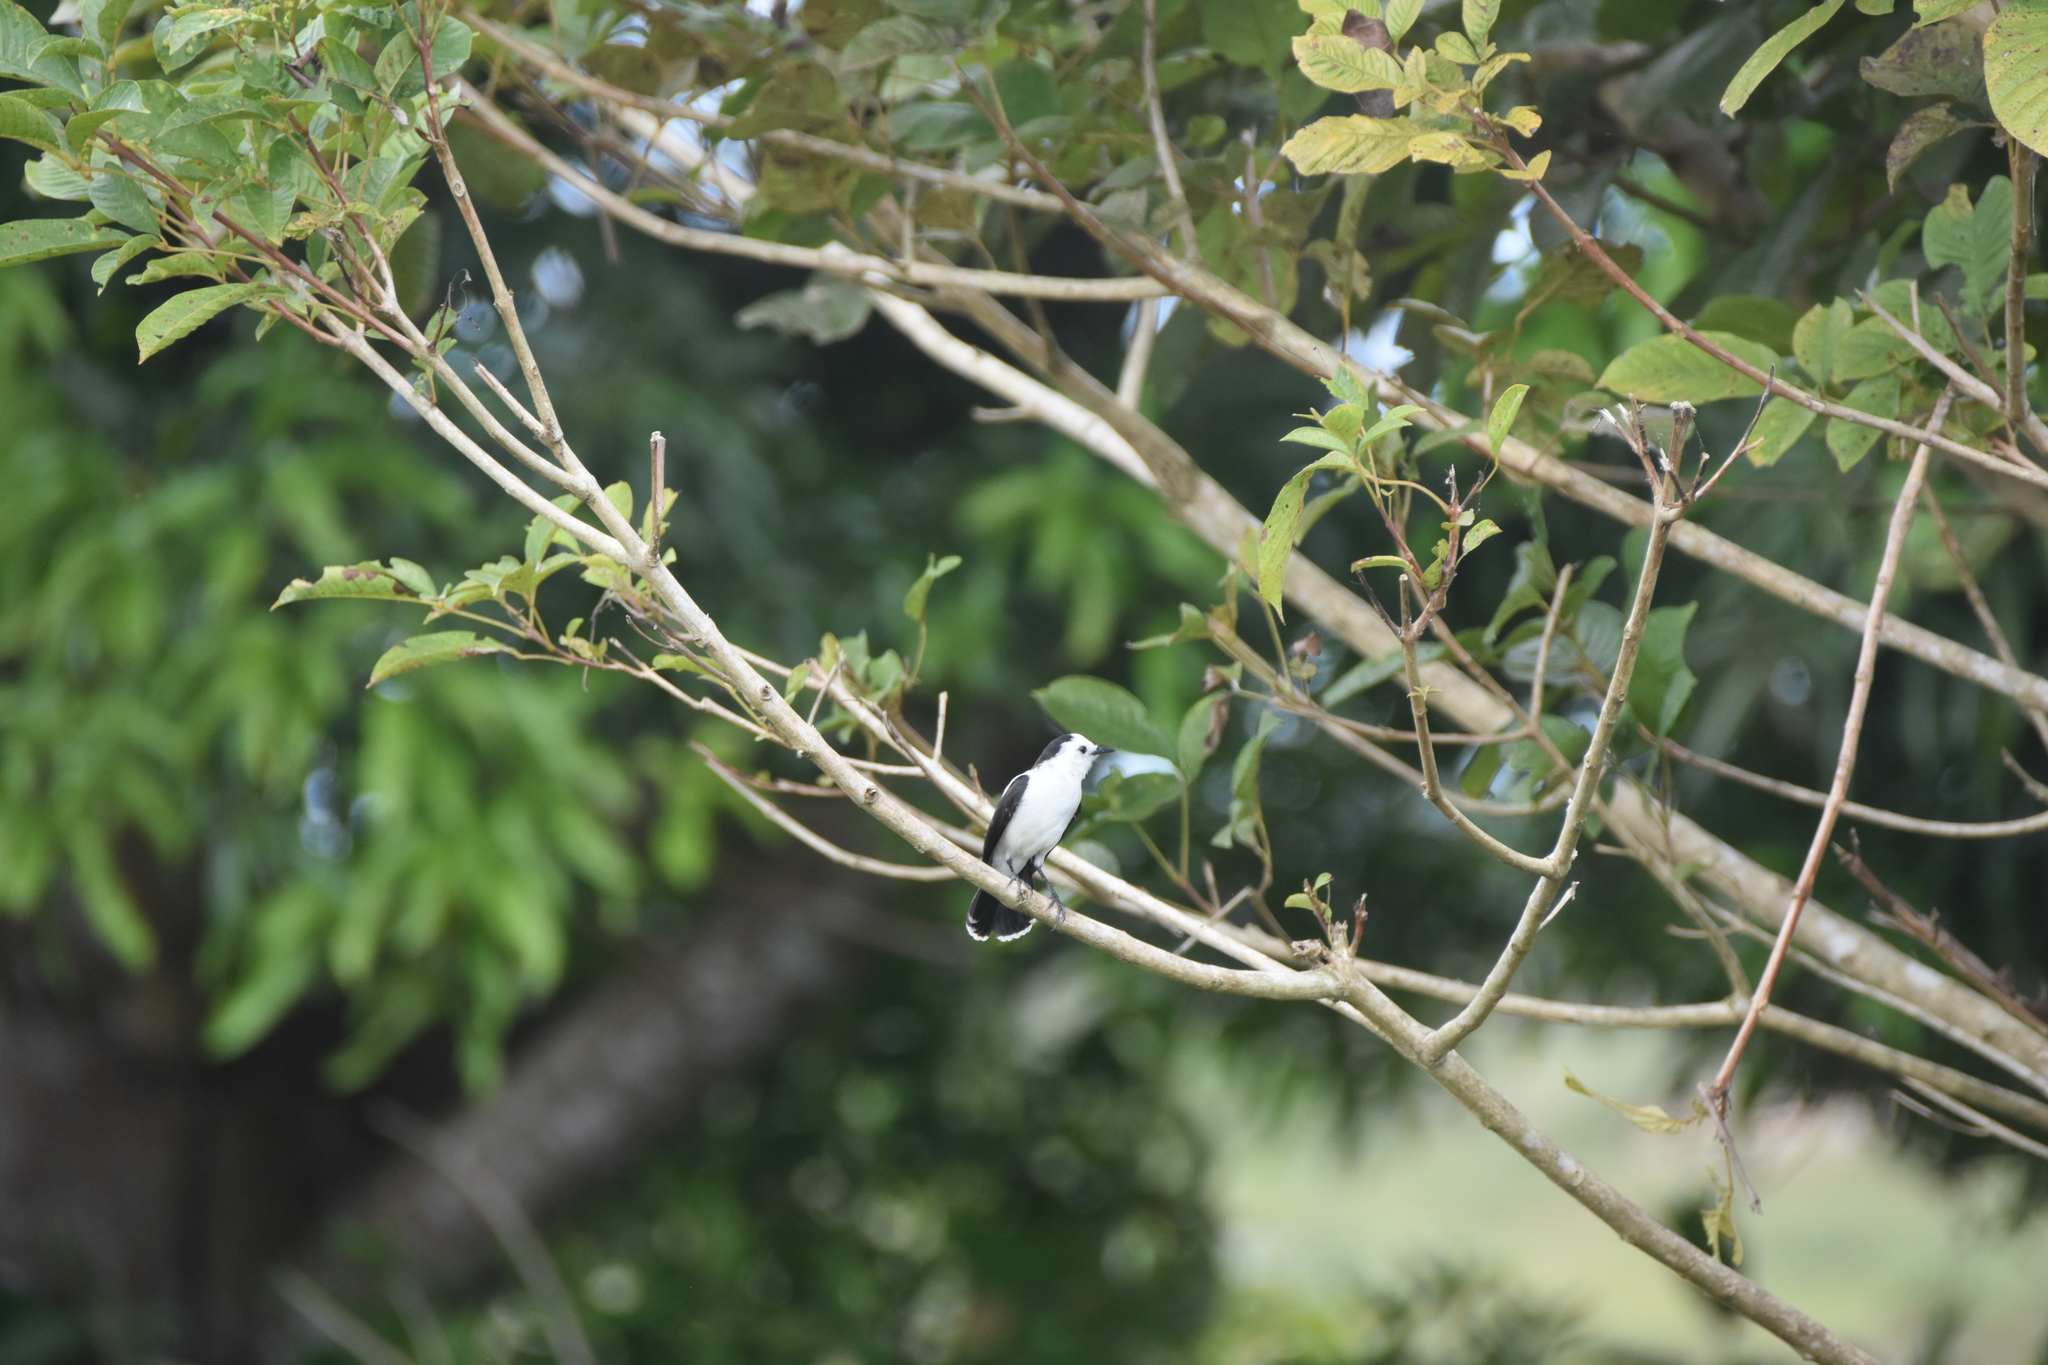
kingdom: Animalia
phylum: Chordata
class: Aves
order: Passeriformes
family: Tyrannidae
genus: Fluvicola
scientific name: Fluvicola pica
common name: Pied water-tyrant
